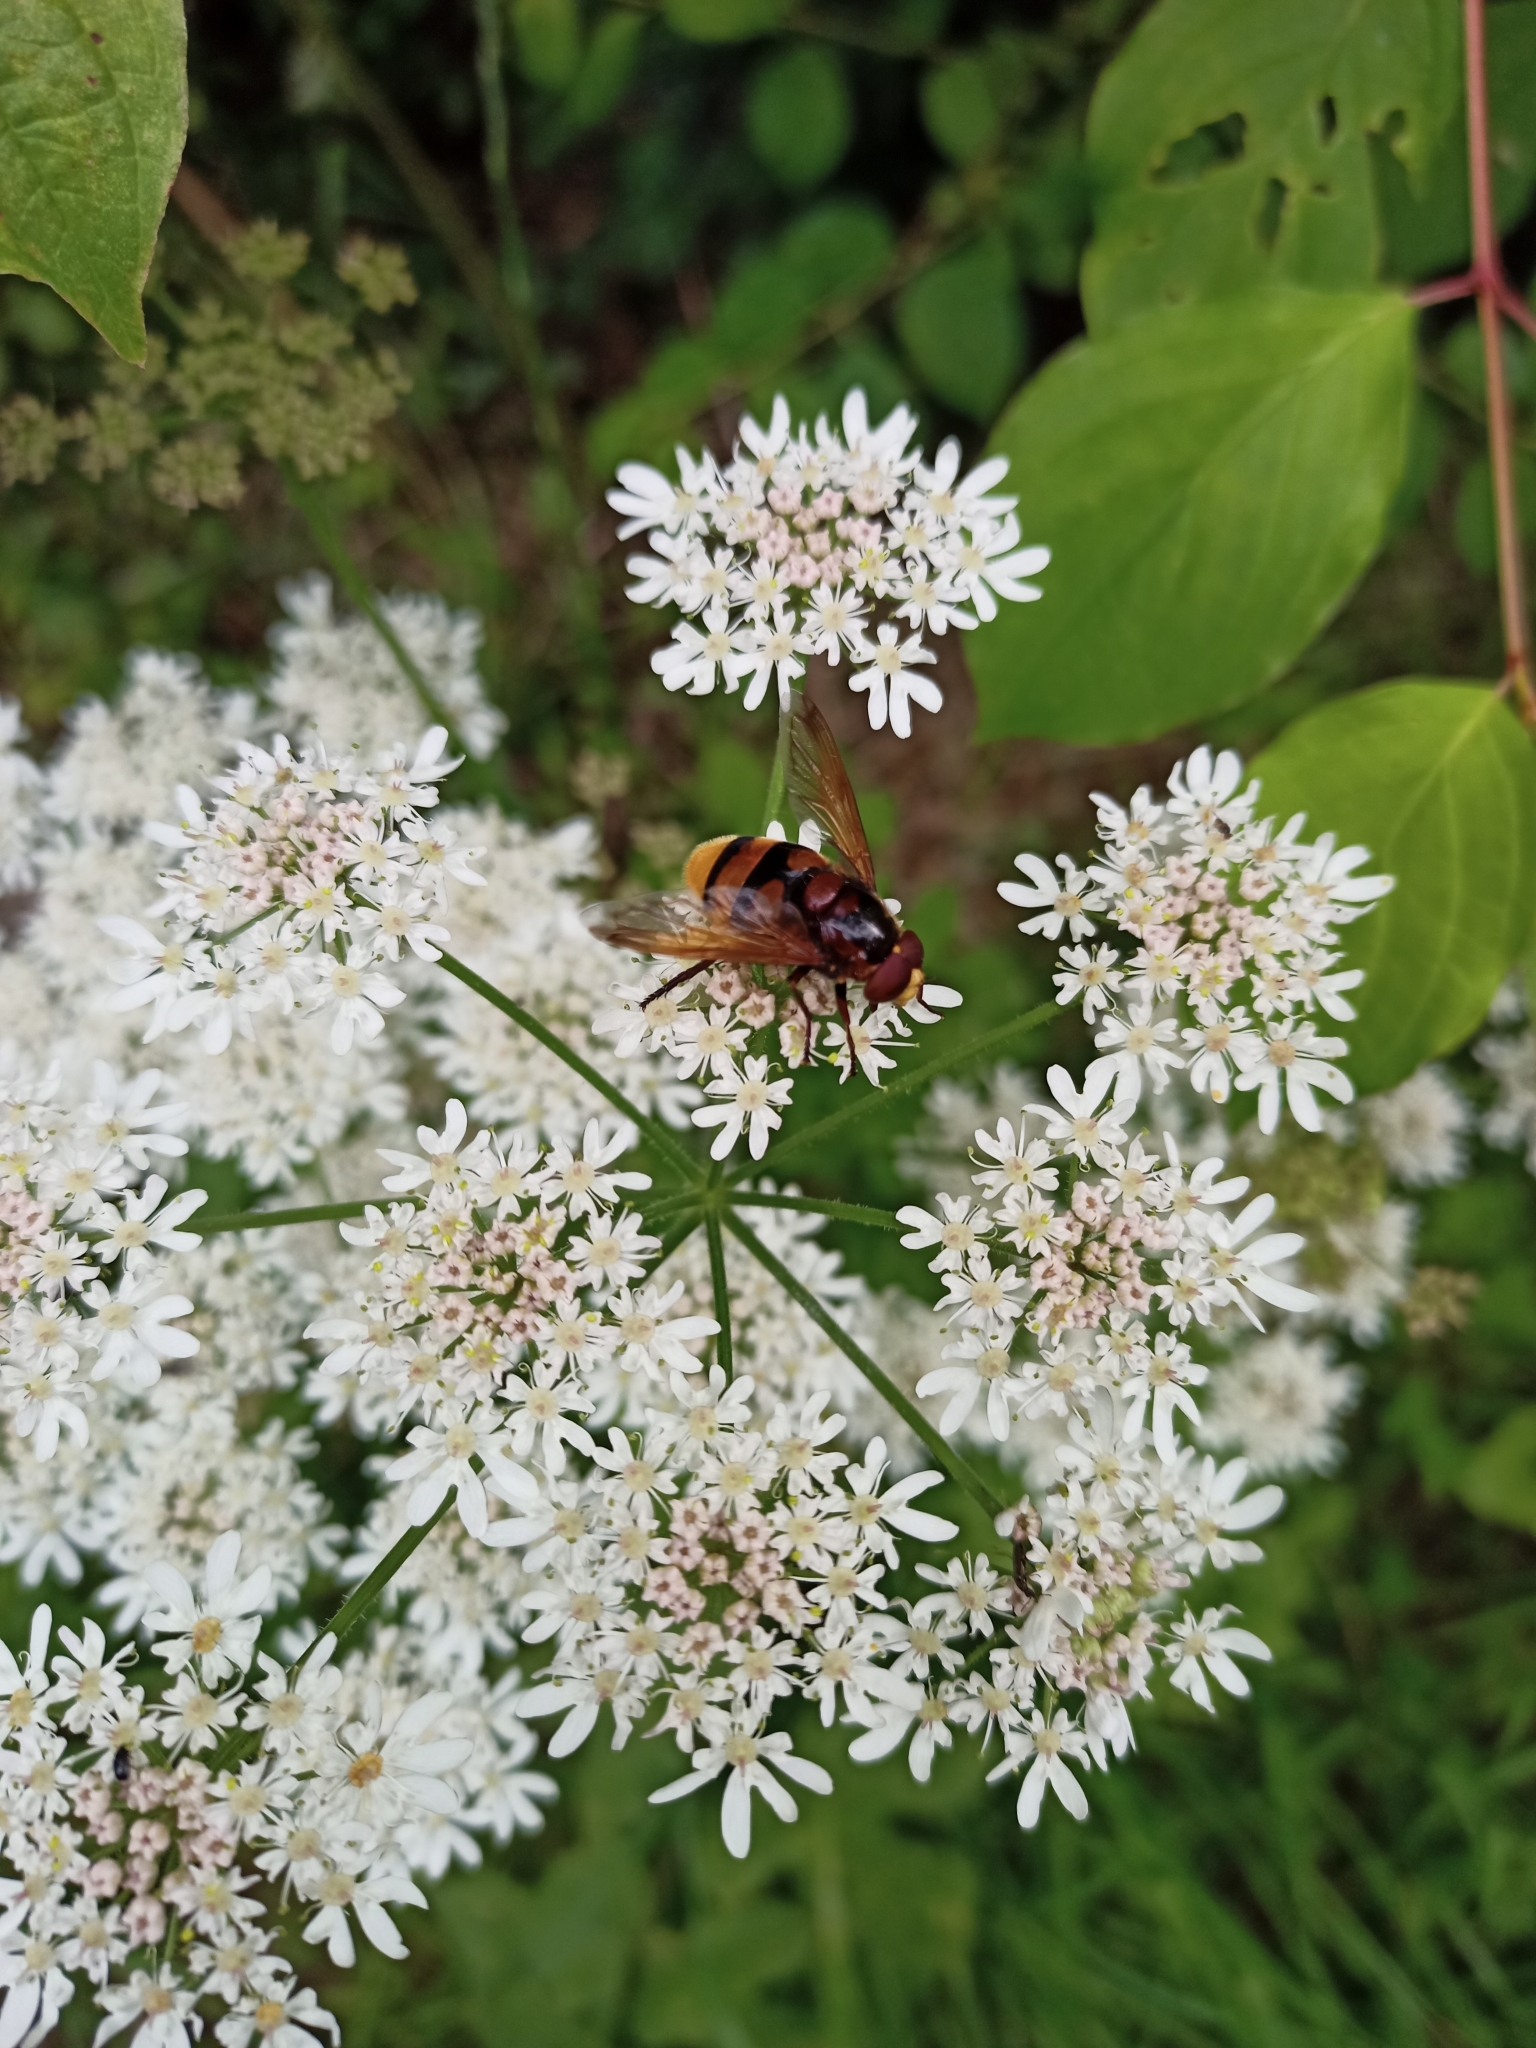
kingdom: Animalia
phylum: Arthropoda
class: Insecta
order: Diptera
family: Syrphidae
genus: Volucella
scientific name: Volucella zonaria
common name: Hornet hoverfly
